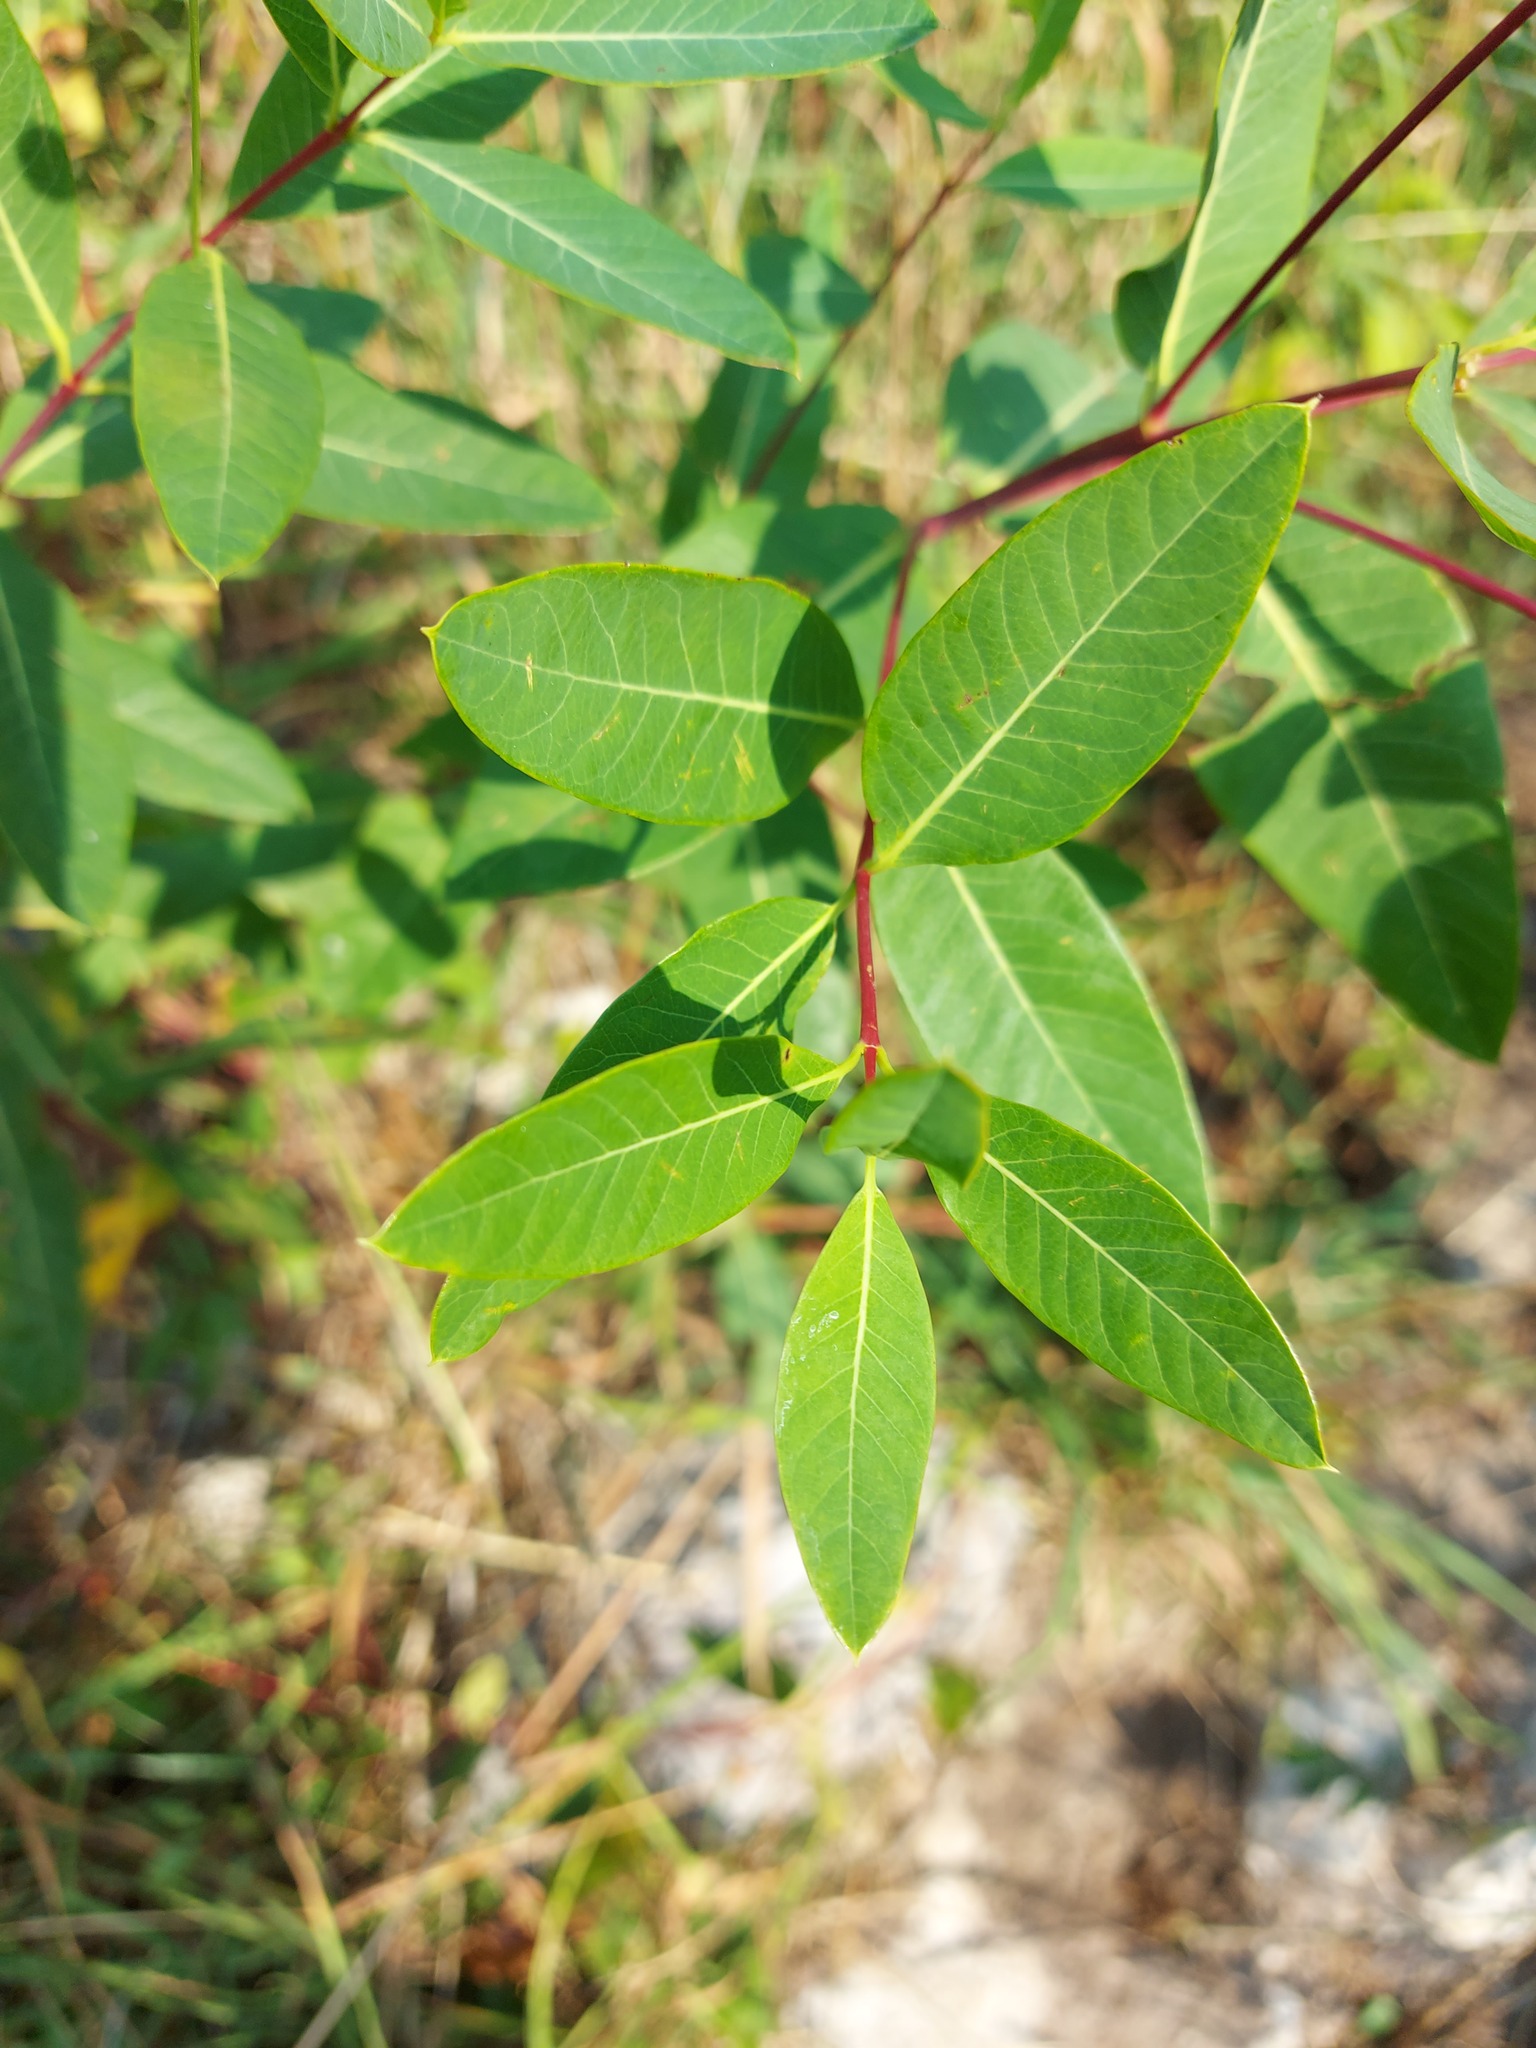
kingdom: Plantae
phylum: Tracheophyta
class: Magnoliopsida
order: Gentianales
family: Apocynaceae
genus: Apocynum
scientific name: Apocynum cannabinum
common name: Hemp dogbane
